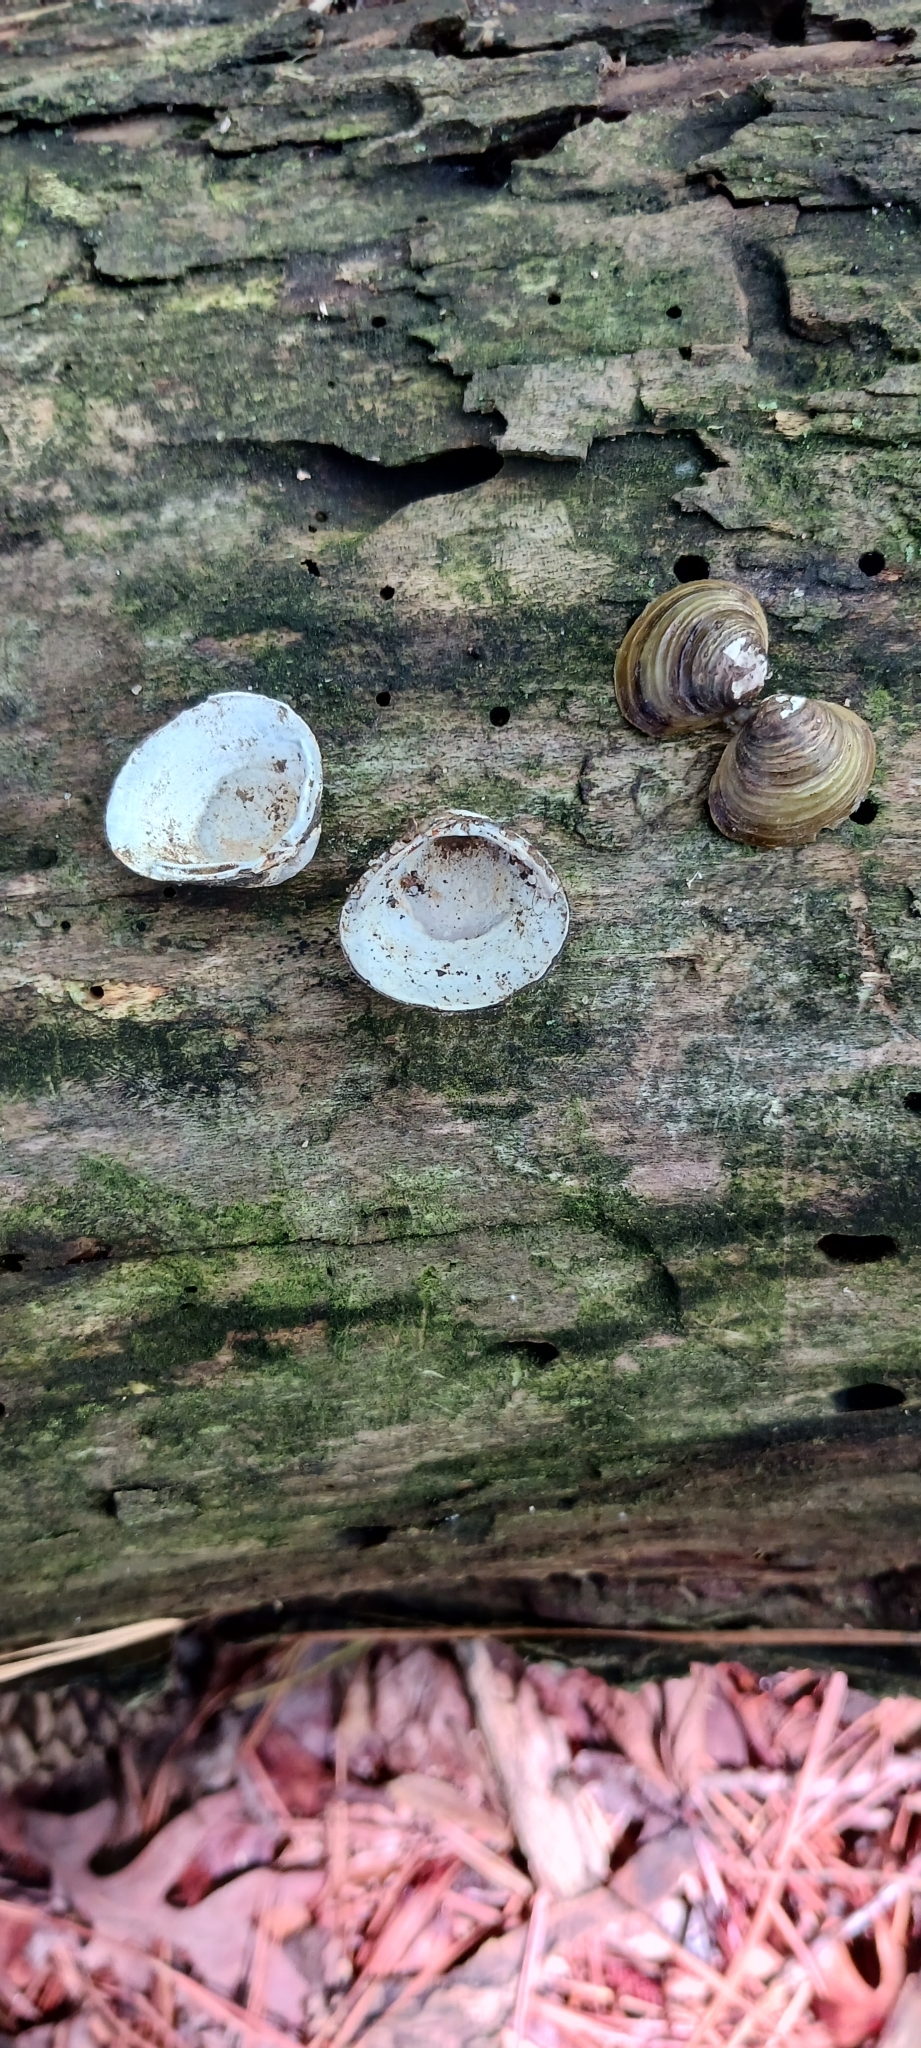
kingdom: Animalia
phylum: Mollusca
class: Bivalvia
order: Venerida
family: Cyrenidae
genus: Corbicula
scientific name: Corbicula fluminea
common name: Asian clam
